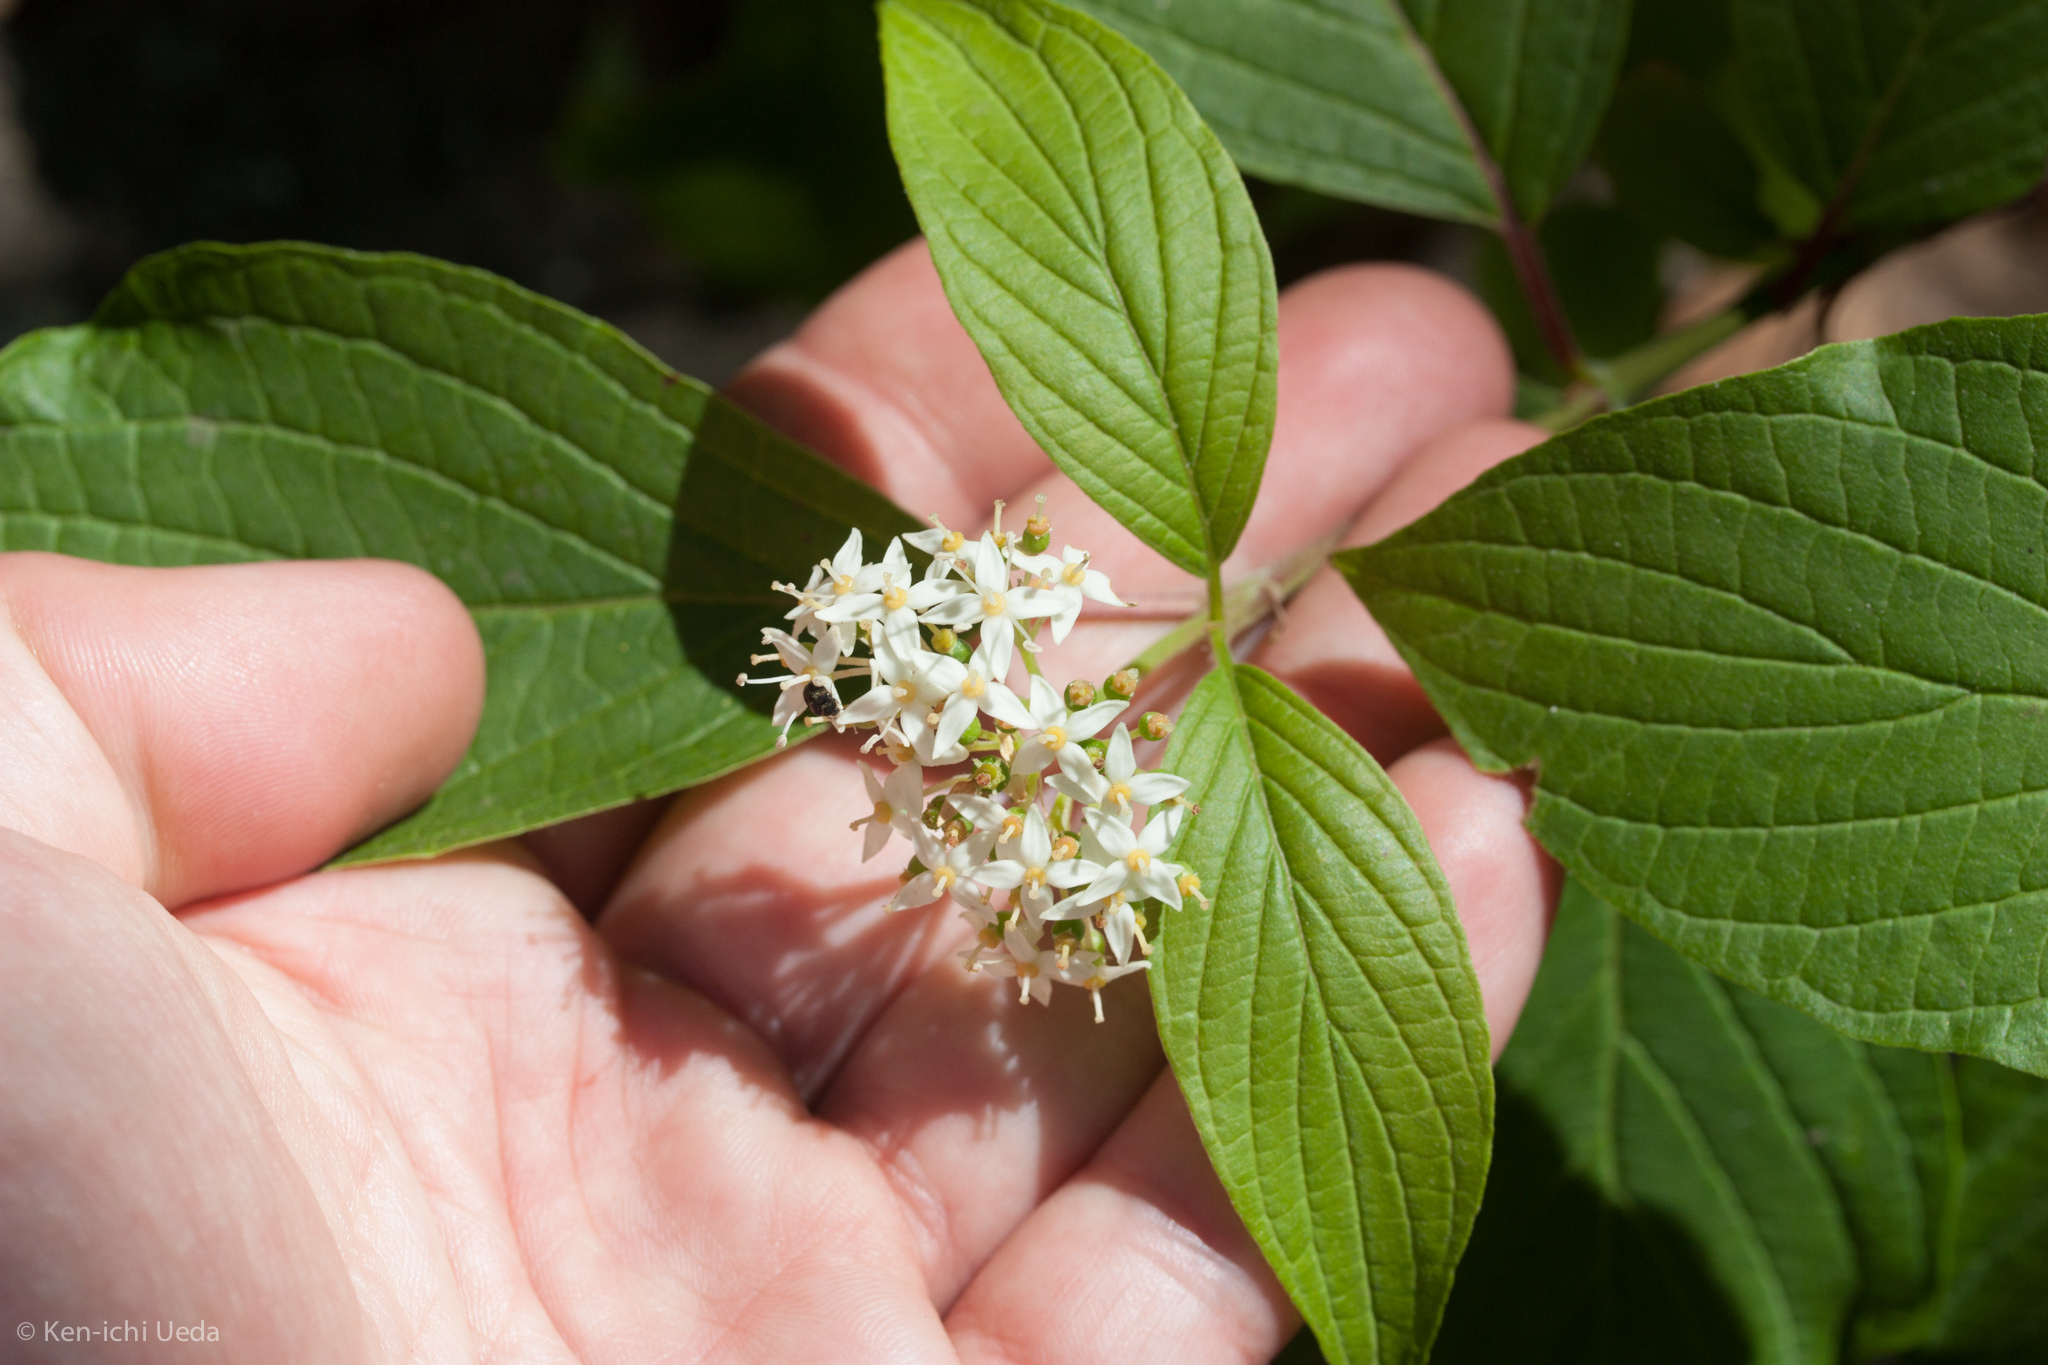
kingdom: Plantae
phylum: Tracheophyta
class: Magnoliopsida
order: Cornales
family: Cornaceae
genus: Cornus
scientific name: Cornus sericea
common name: Red-osier dogwood
